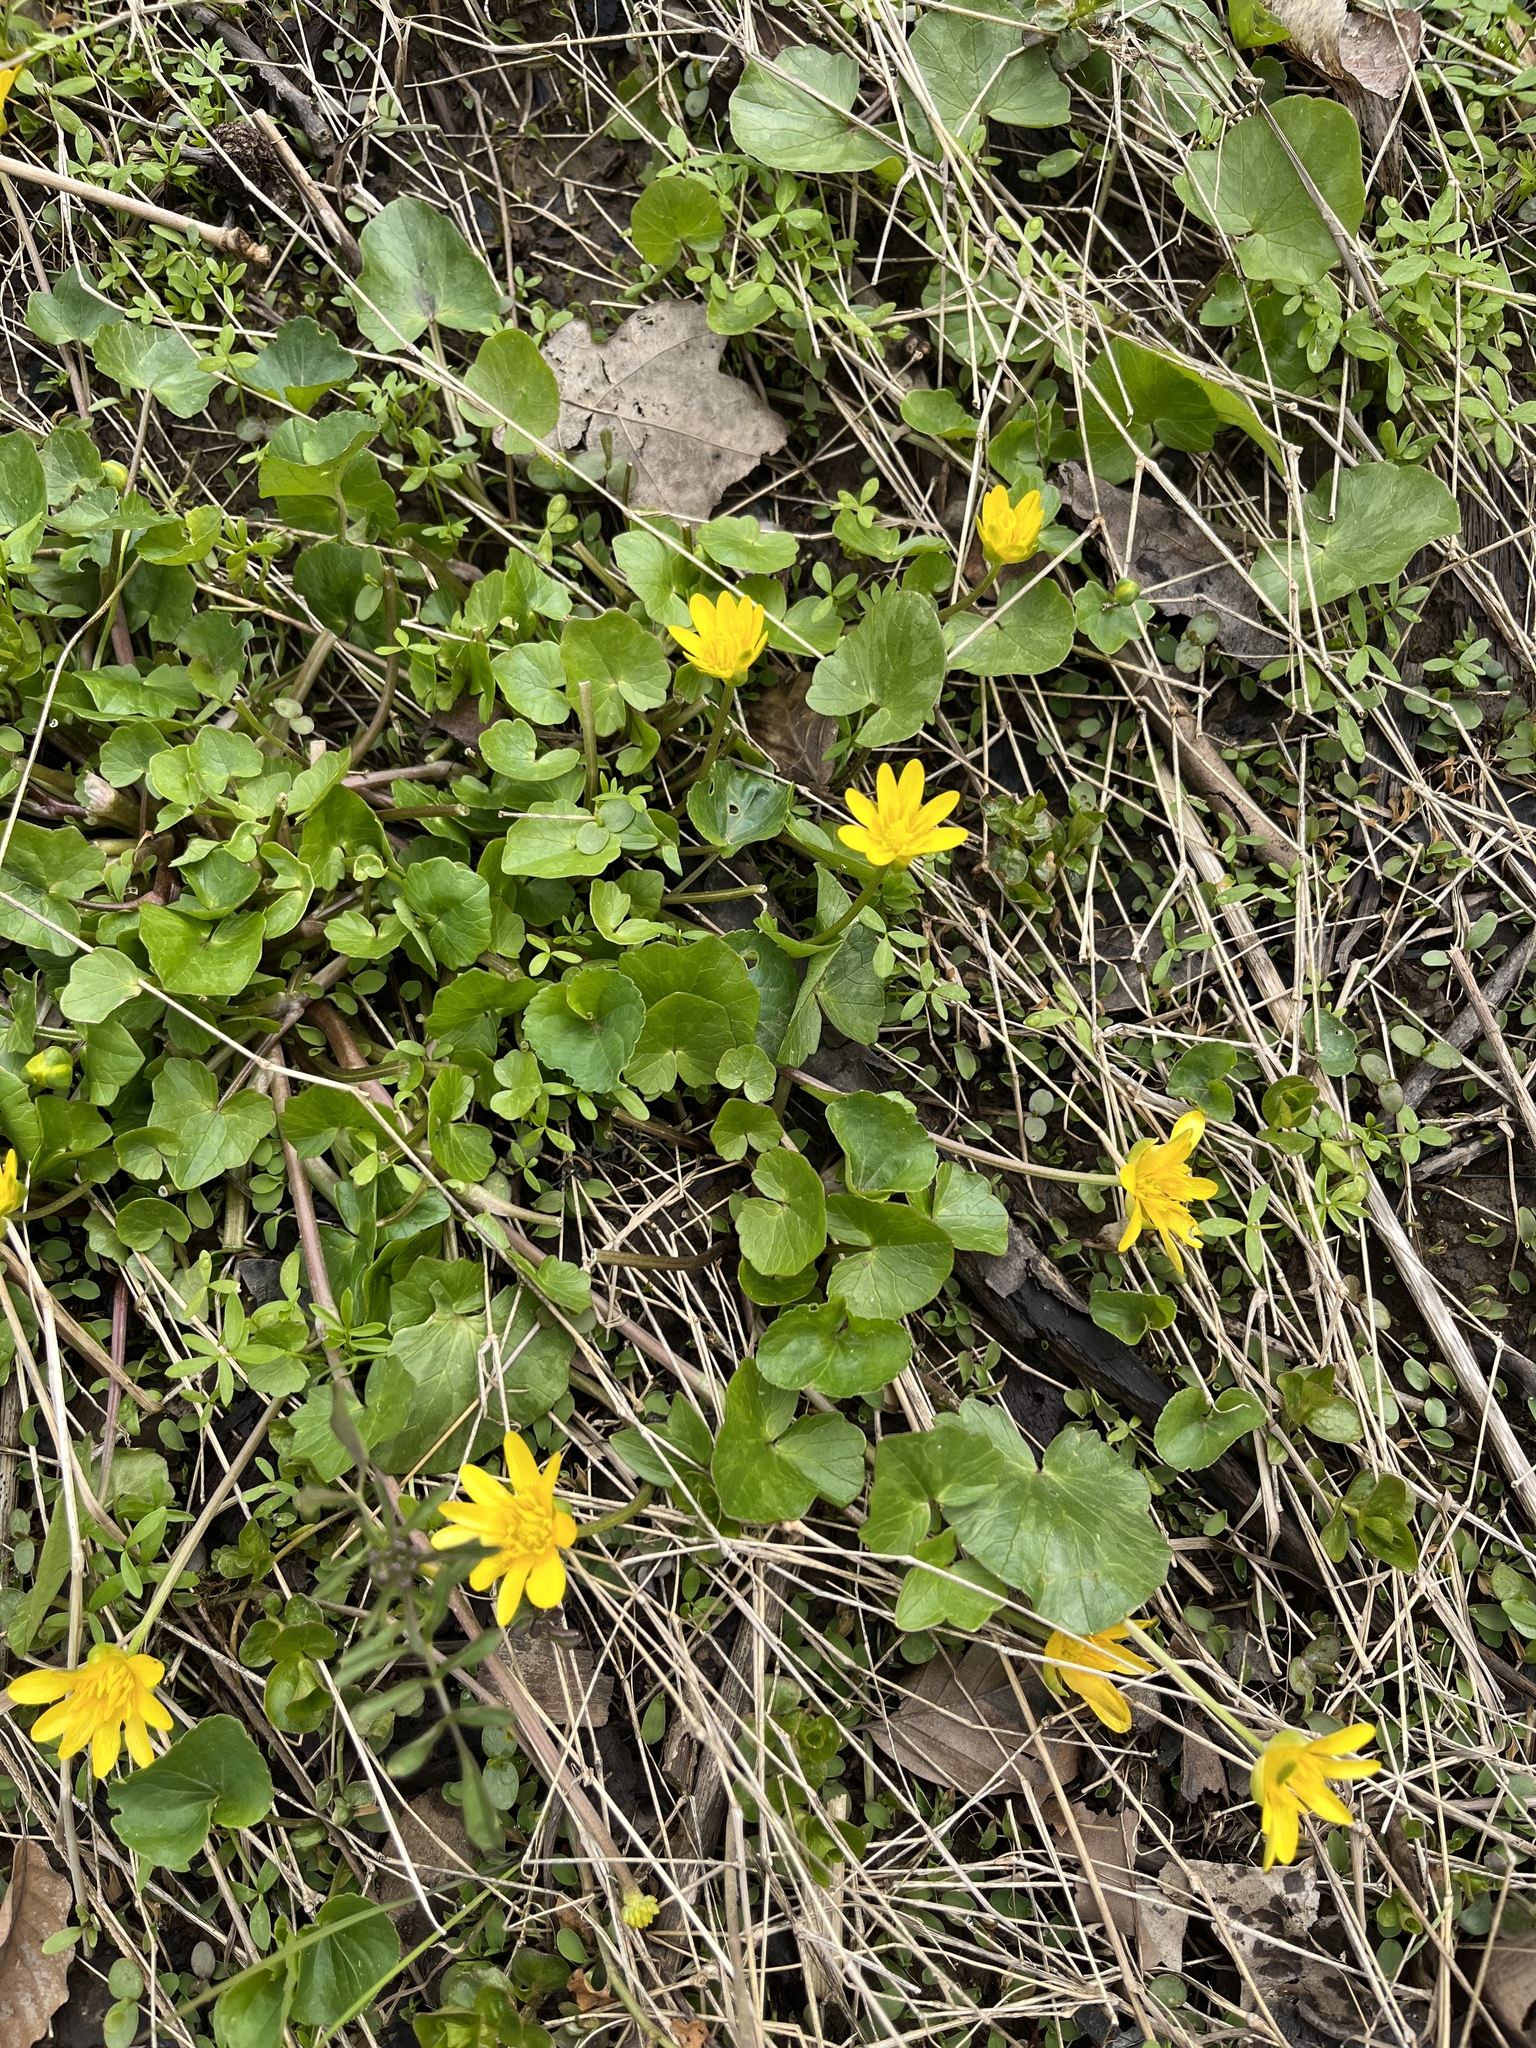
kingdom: Plantae
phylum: Tracheophyta
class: Magnoliopsida
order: Ranunculales
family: Ranunculaceae
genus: Ficaria
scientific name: Ficaria verna
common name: Lesser celandine
